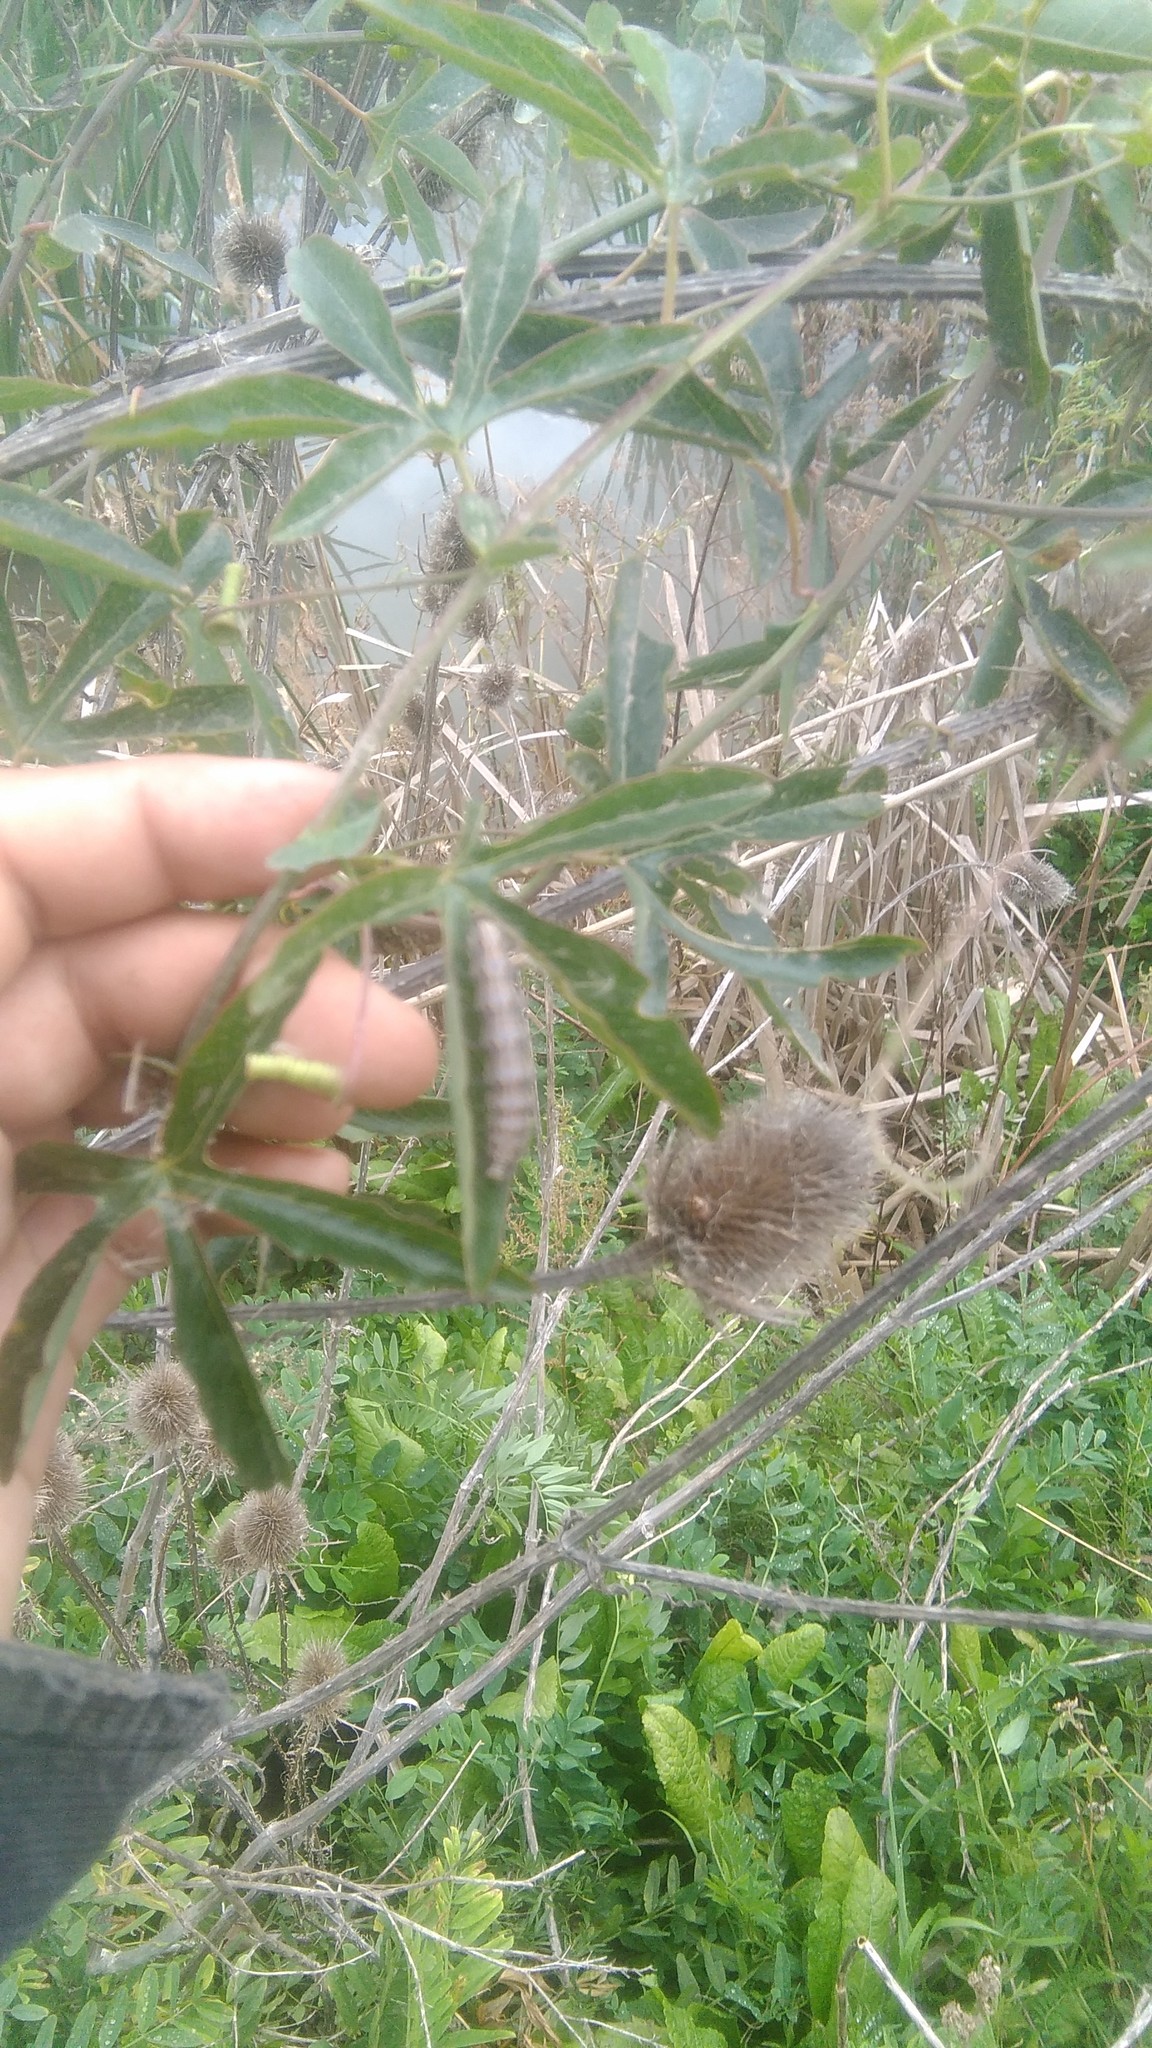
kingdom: Plantae
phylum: Tracheophyta
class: Magnoliopsida
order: Malpighiales
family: Passifloraceae
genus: Passiflora
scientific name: Passiflora caerulea
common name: Blue passionflower
